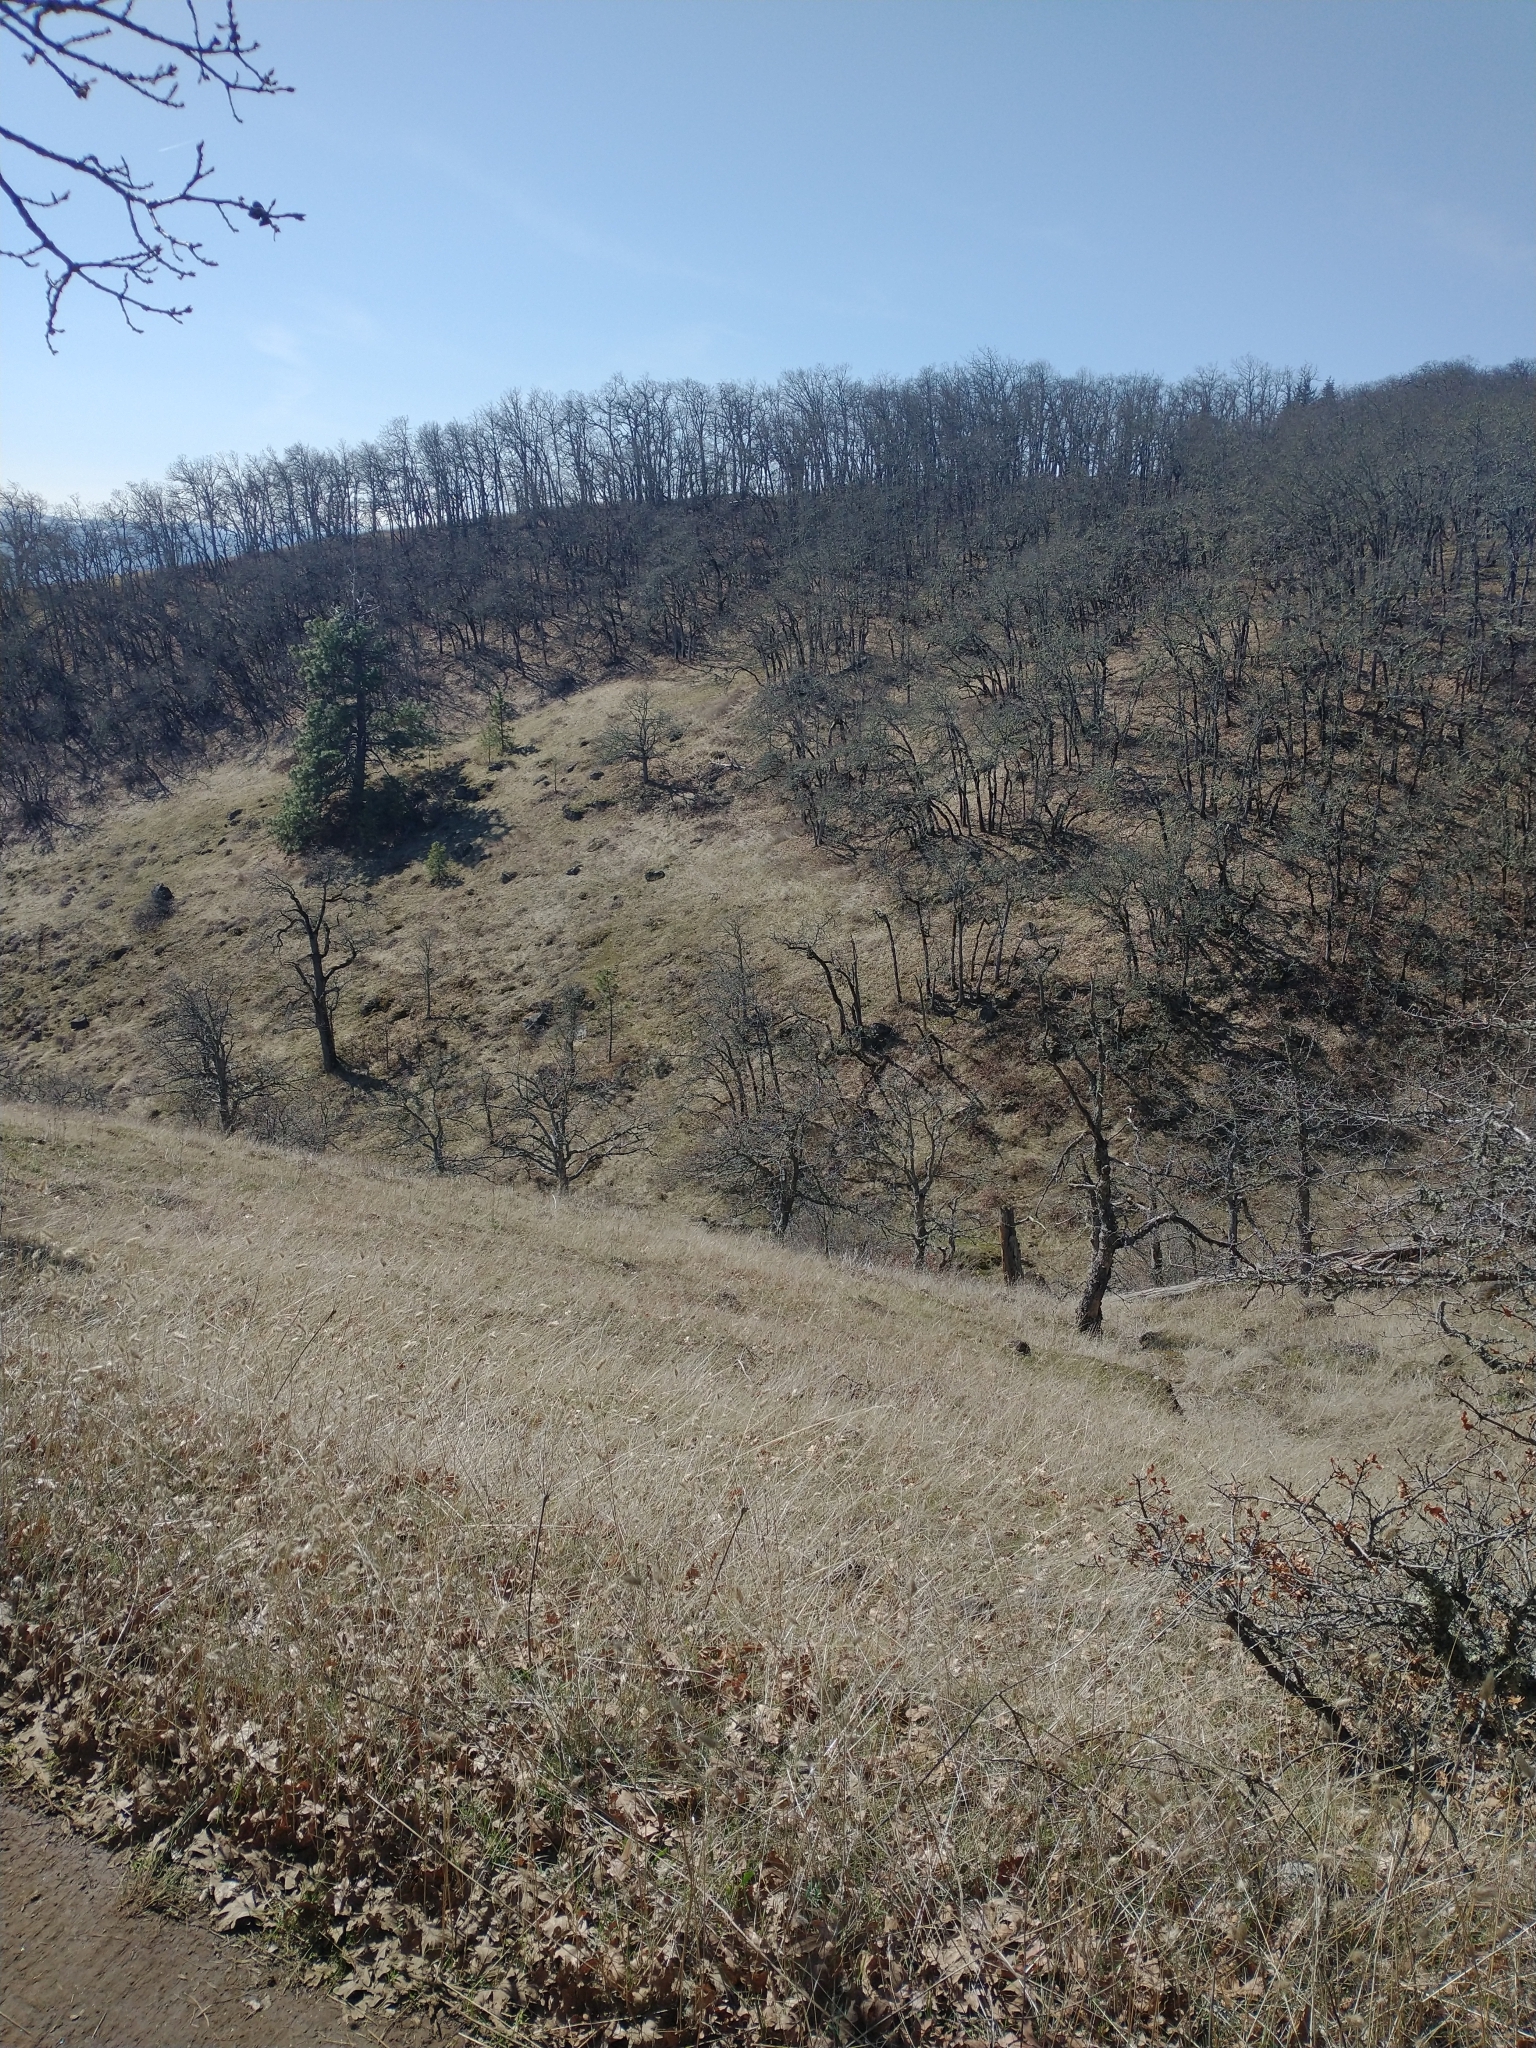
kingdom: Plantae
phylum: Tracheophyta
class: Magnoliopsida
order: Fagales
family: Fagaceae
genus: Quercus
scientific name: Quercus garryana
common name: Garry oak
